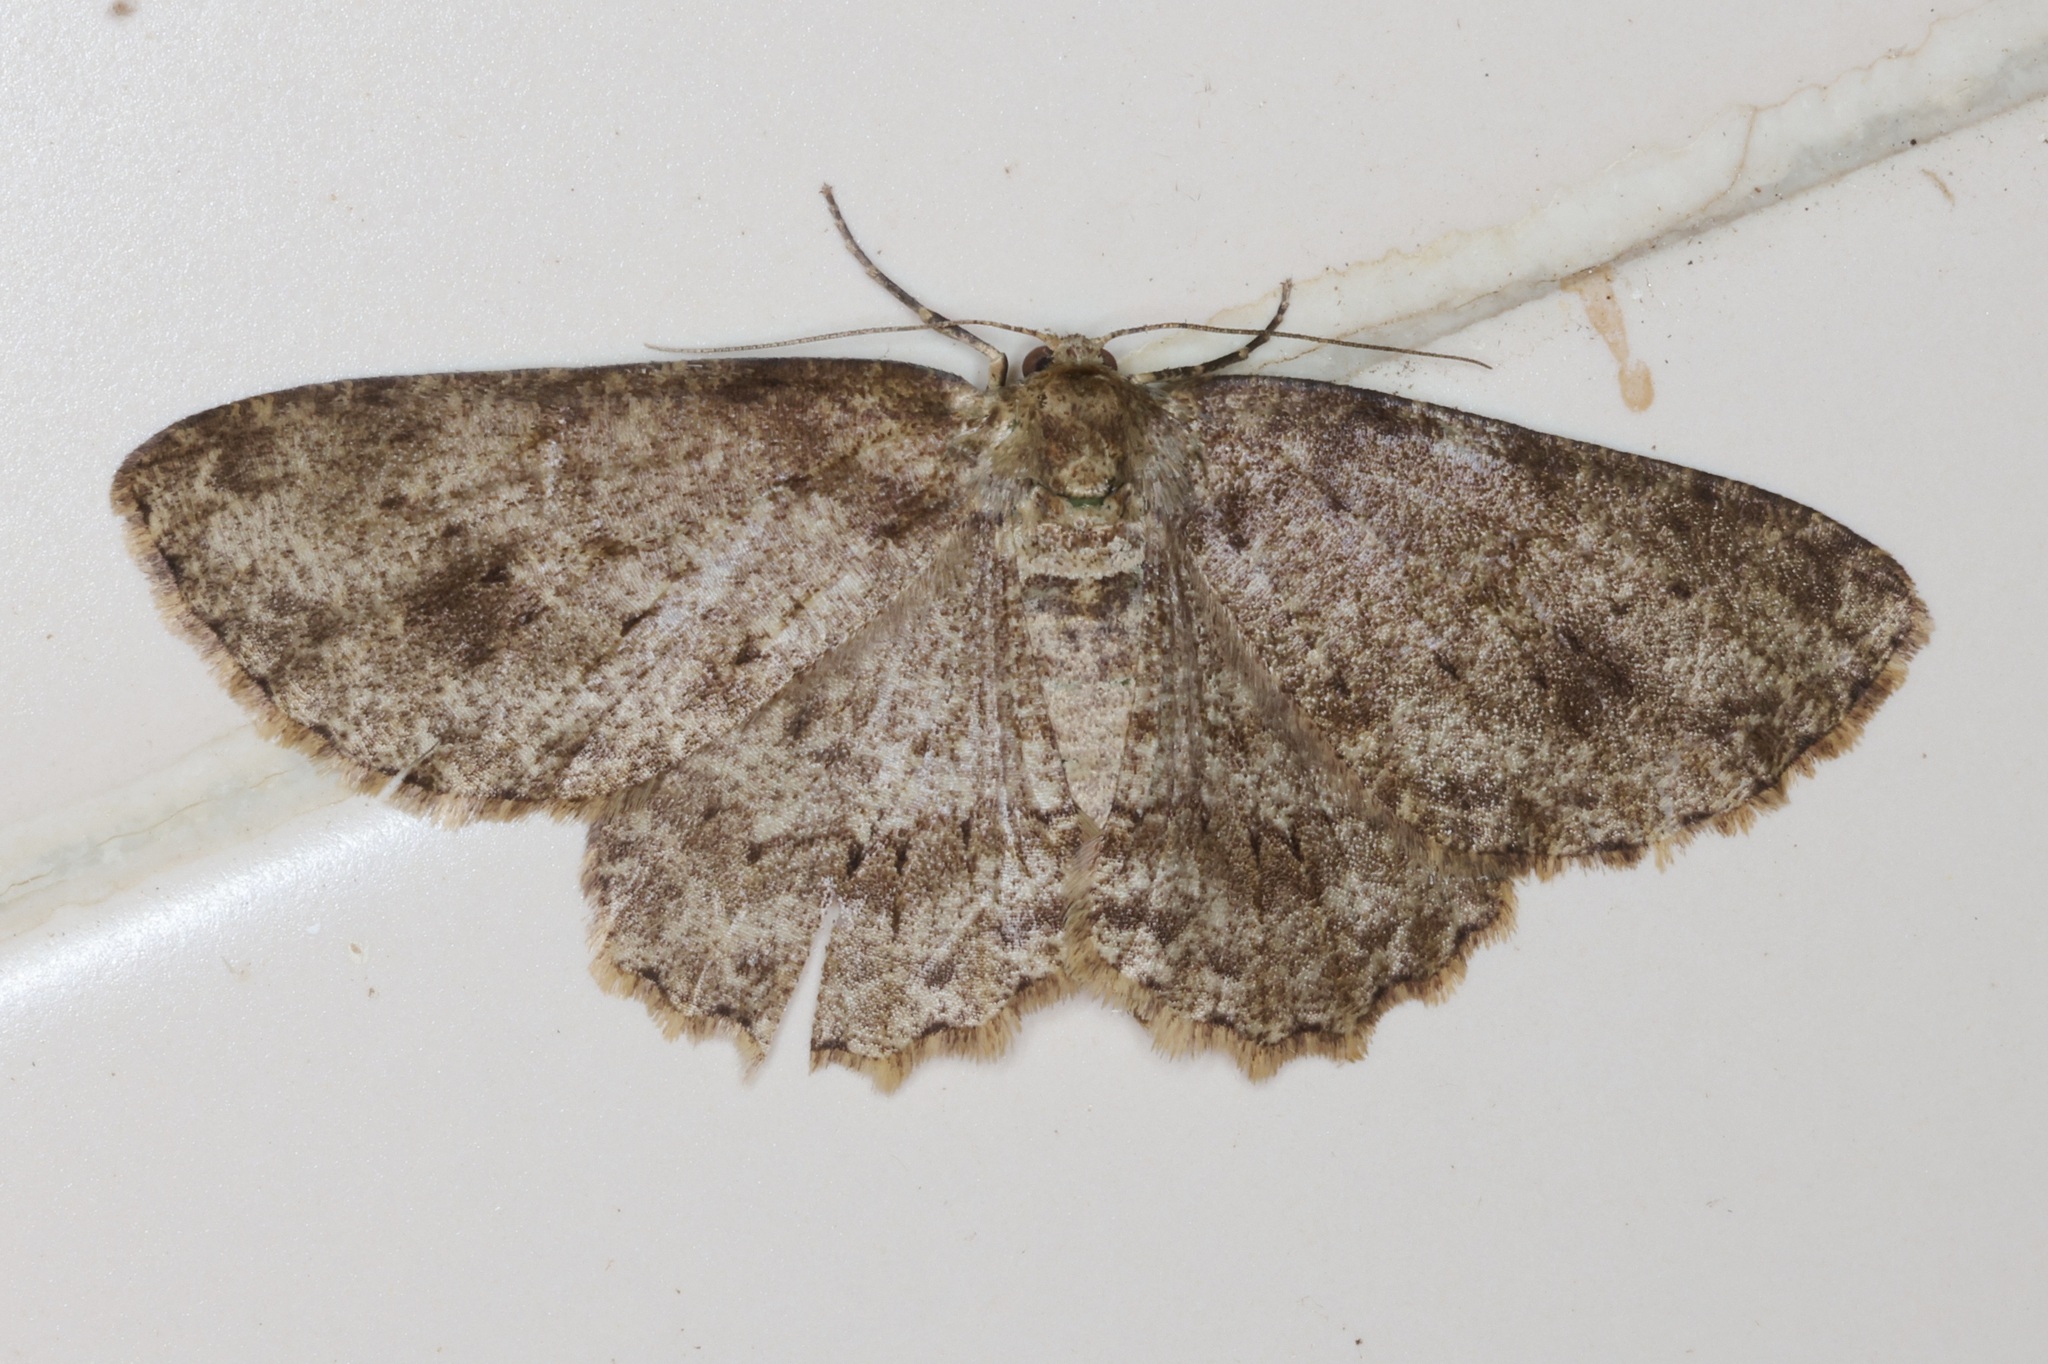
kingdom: Animalia
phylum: Arthropoda
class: Insecta
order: Lepidoptera
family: Geometridae
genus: Ectropis
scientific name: Ectropis bhurmitra
